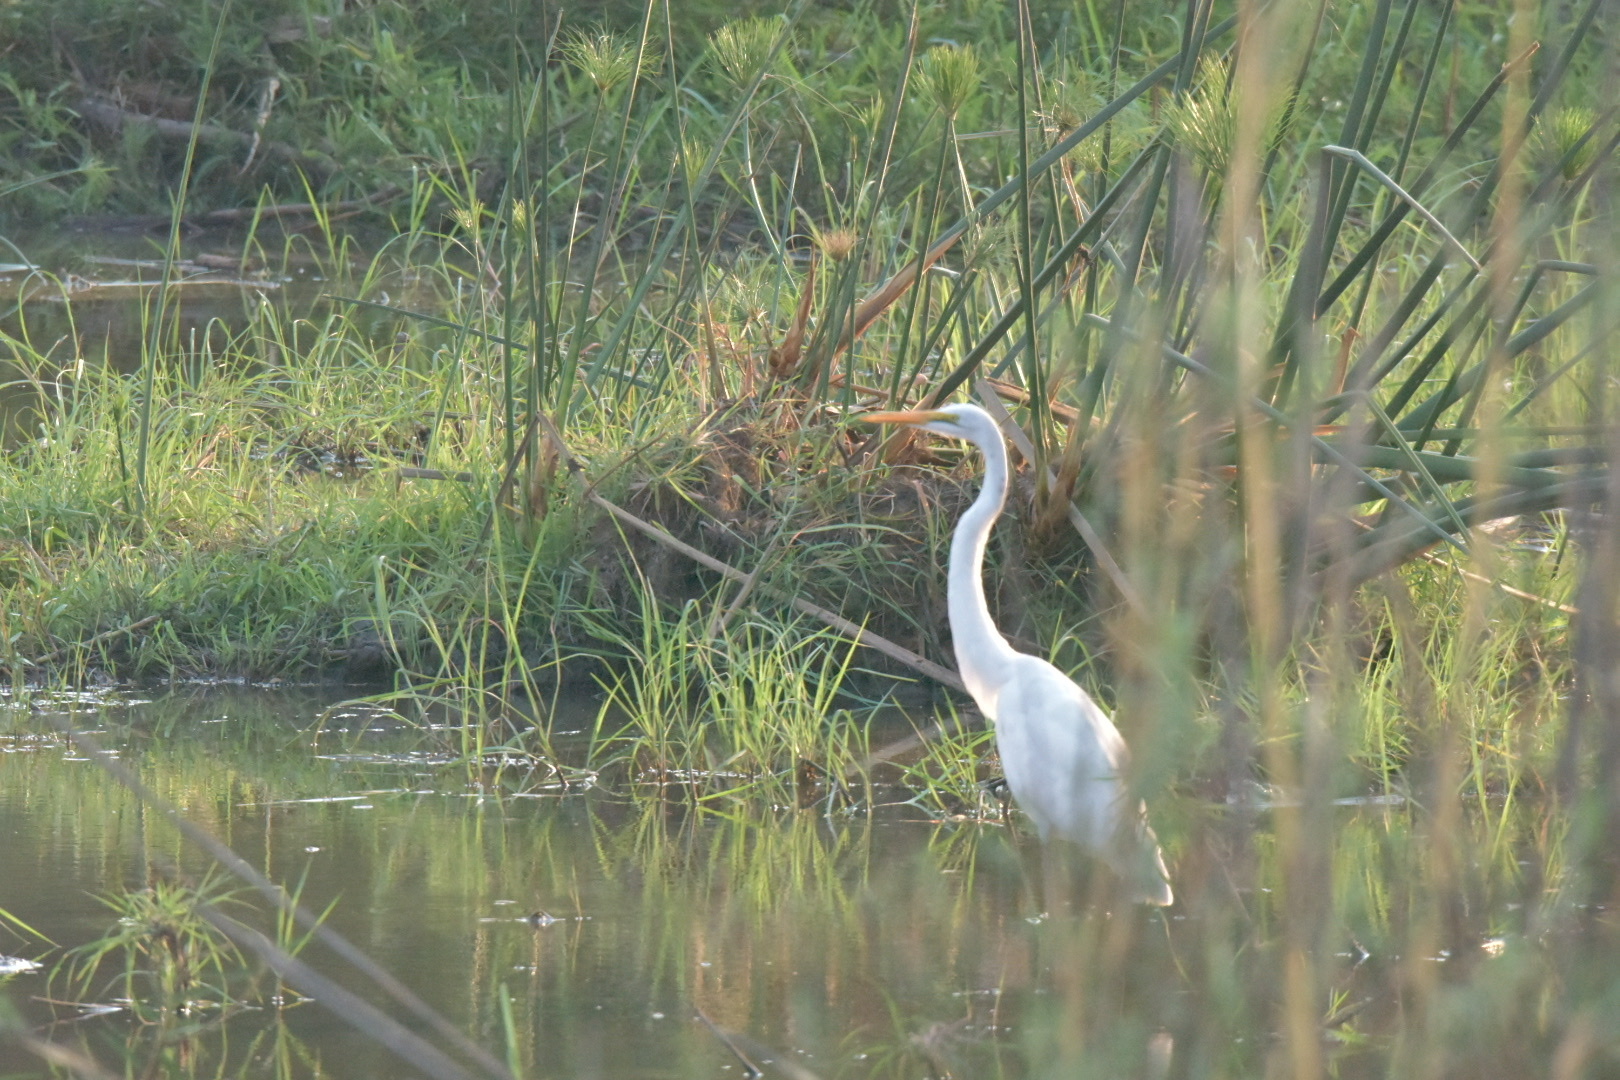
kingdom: Animalia
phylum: Chordata
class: Aves
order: Pelecaniformes
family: Ardeidae
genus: Ardea
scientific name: Ardea alba
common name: Great egret
